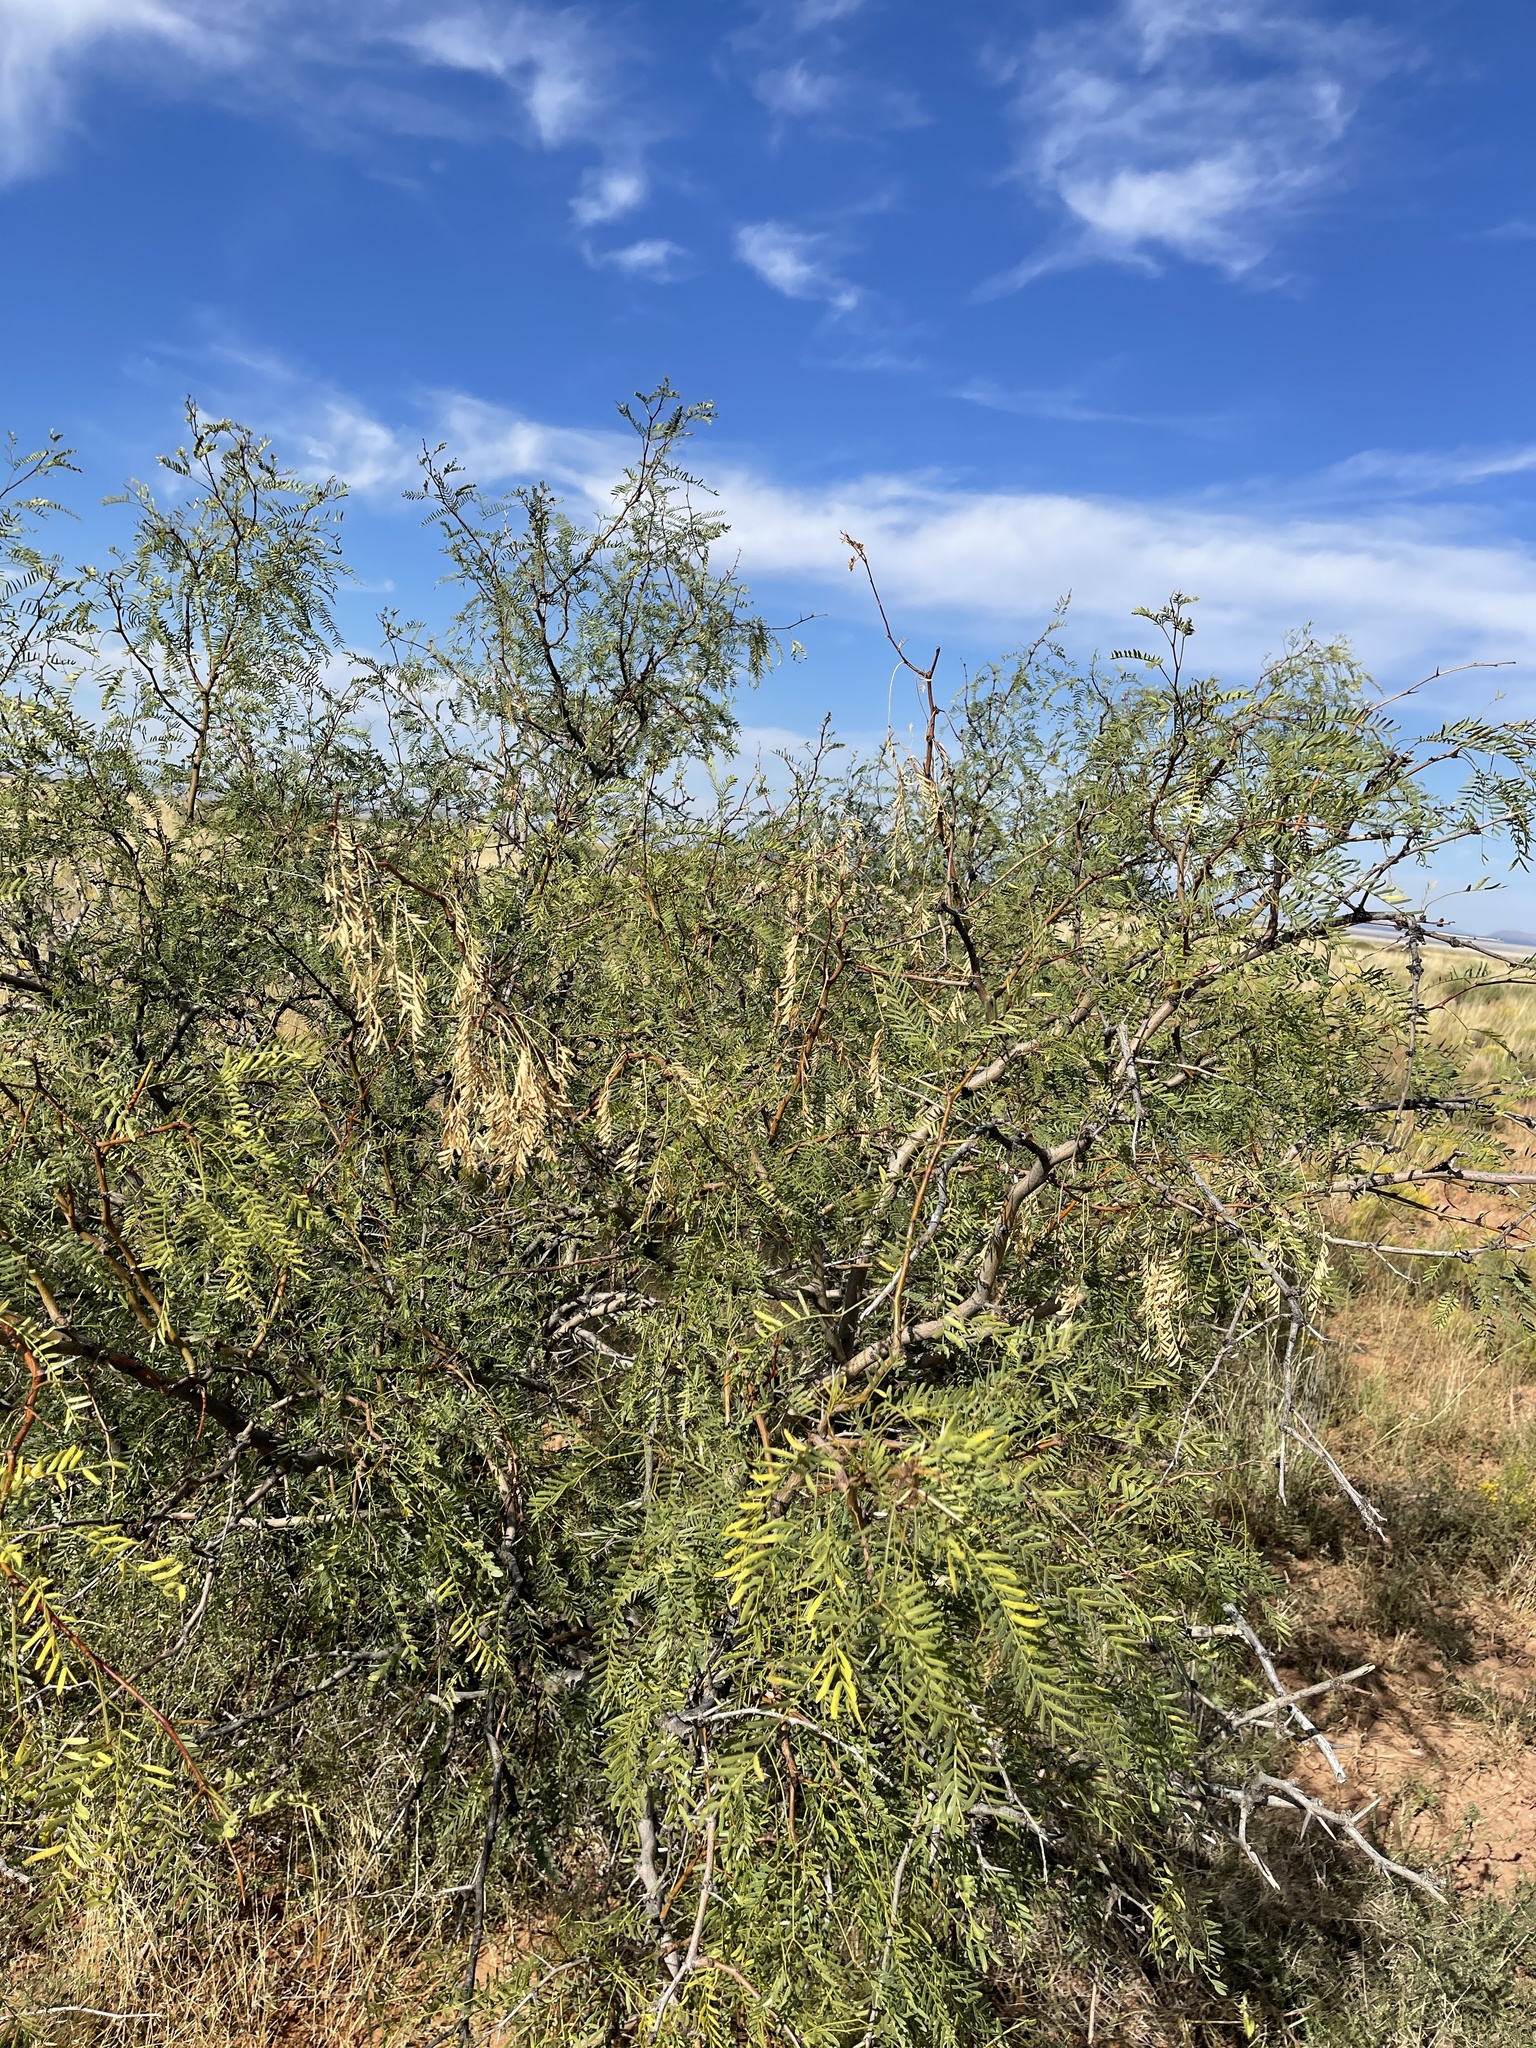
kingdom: Plantae
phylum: Tracheophyta
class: Magnoliopsida
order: Fabales
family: Fabaceae
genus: Prosopis
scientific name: Prosopis glandulosa
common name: Honey mesquite
